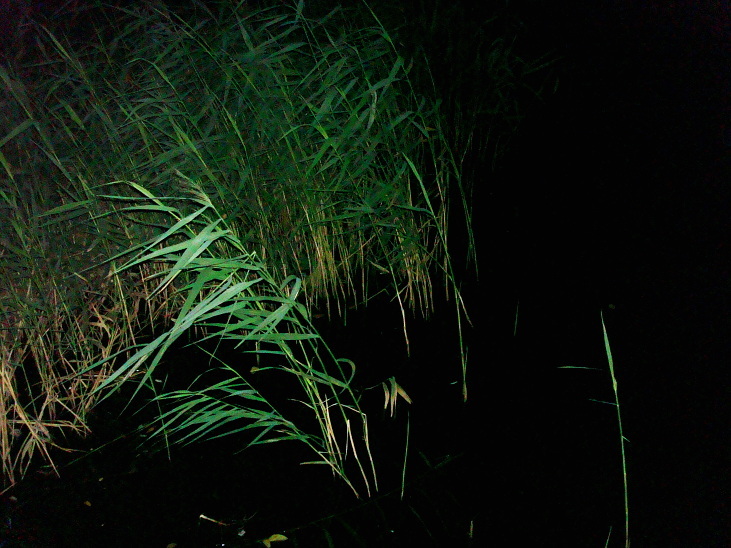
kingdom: Plantae
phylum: Tracheophyta
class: Liliopsida
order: Poales
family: Poaceae
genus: Phragmites
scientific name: Phragmites australis
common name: Common reed
